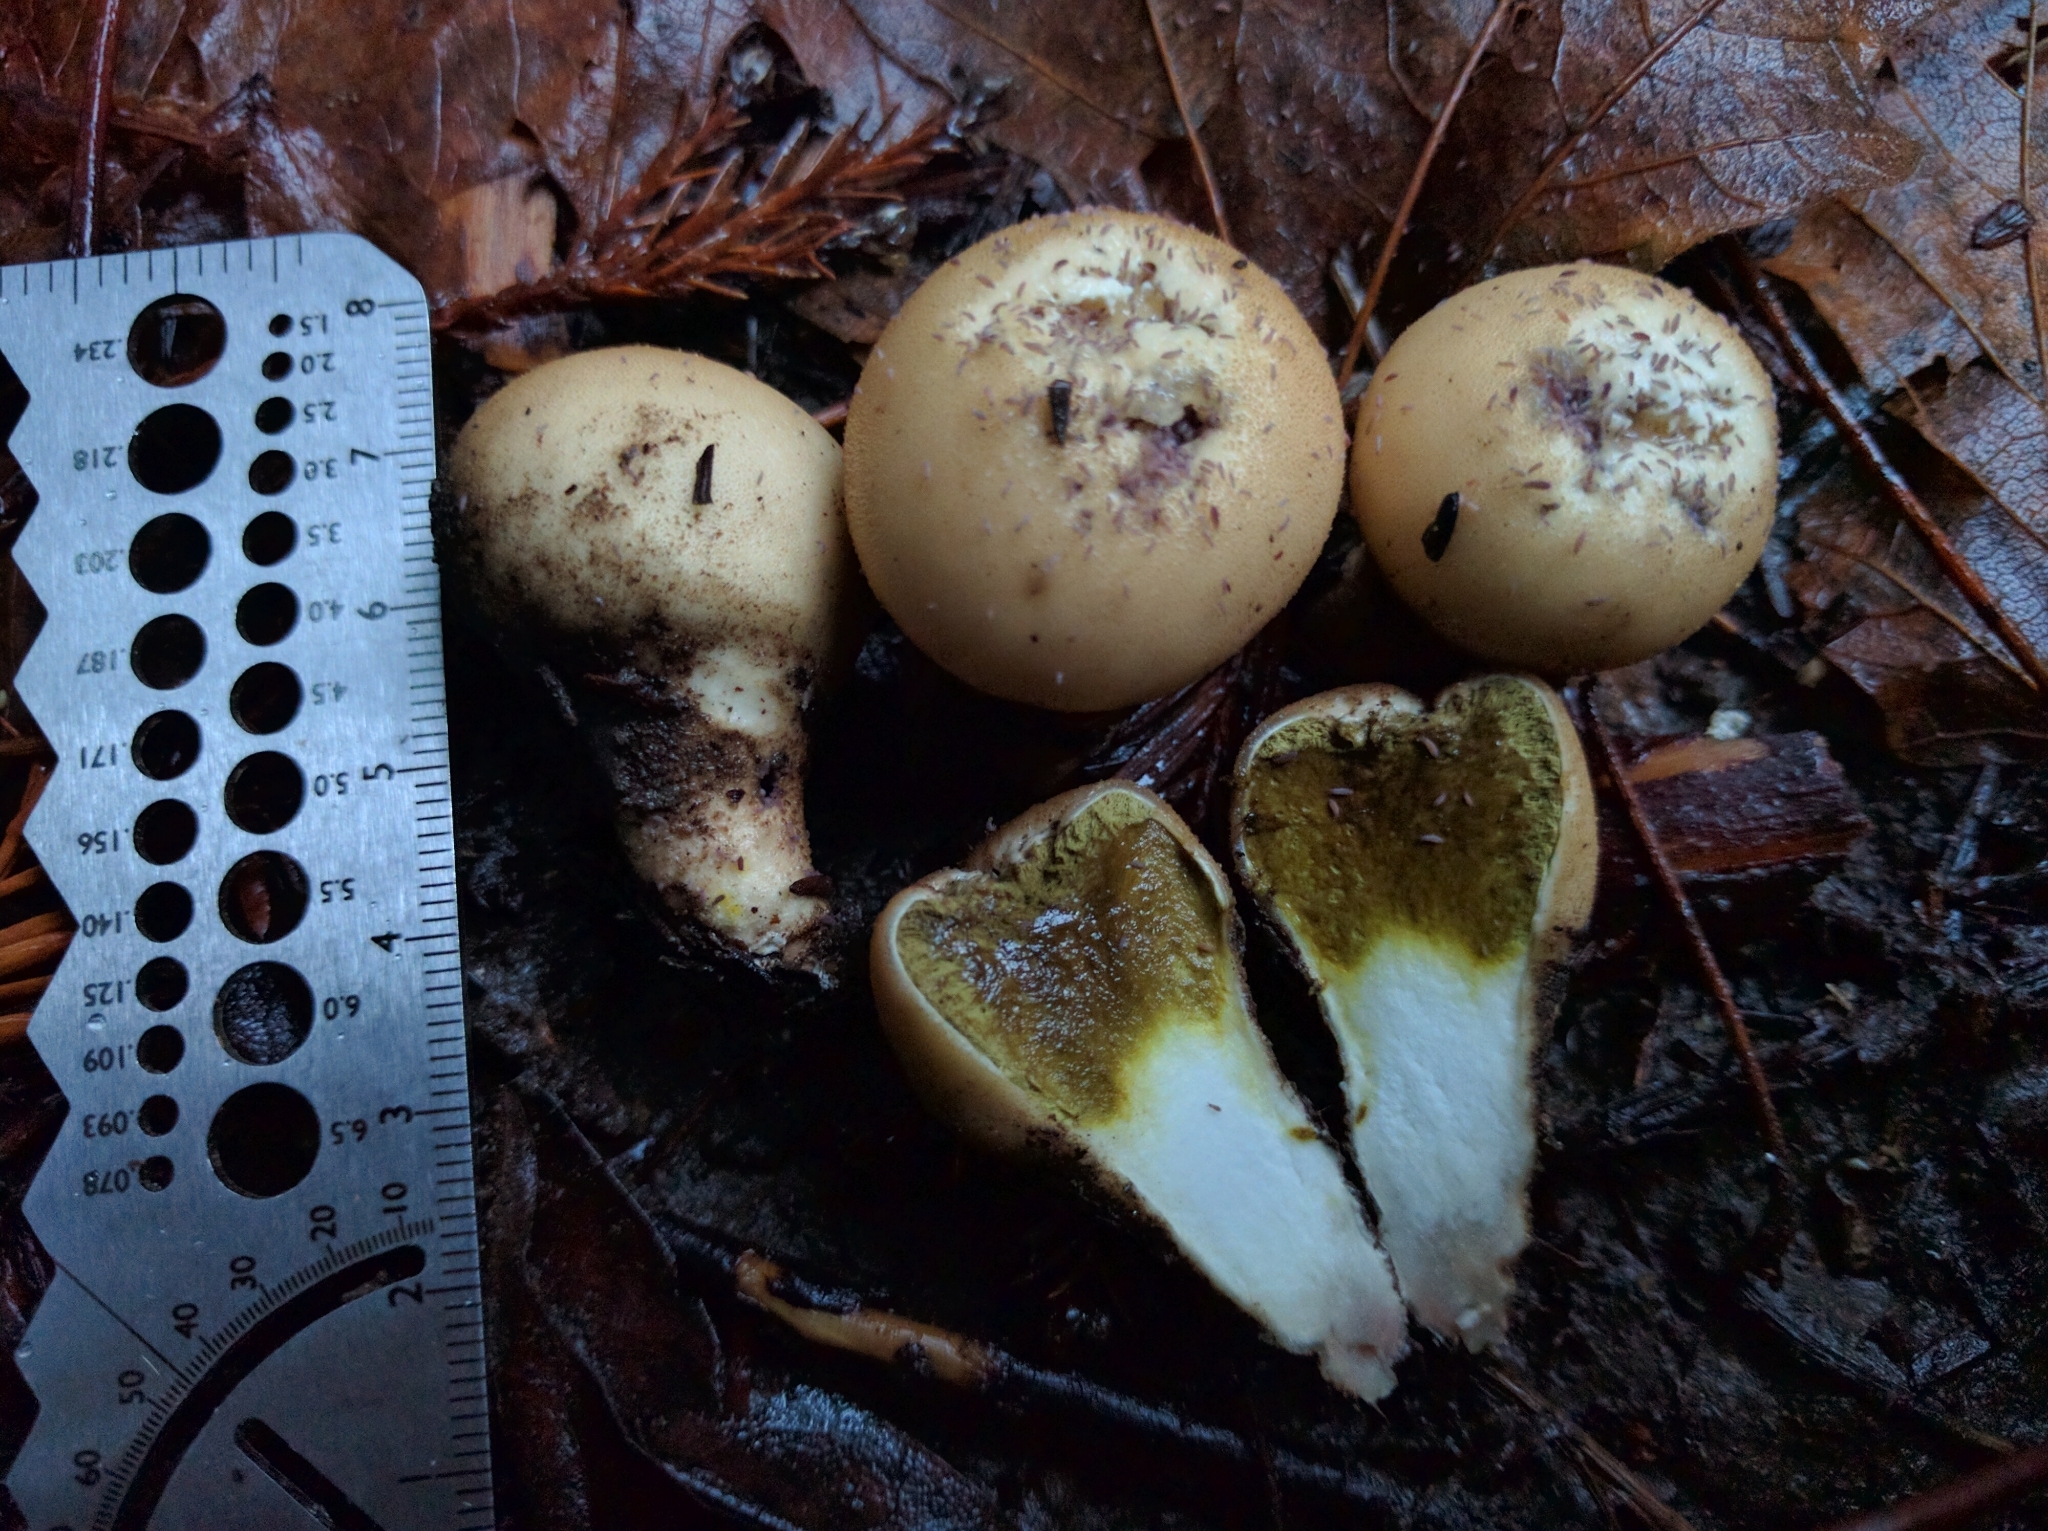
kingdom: Fungi
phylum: Basidiomycota
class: Agaricomycetes
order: Agaricales
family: Lycoperdaceae
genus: Apioperdon
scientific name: Apioperdon pyriforme
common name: Pear-shaped puffball
